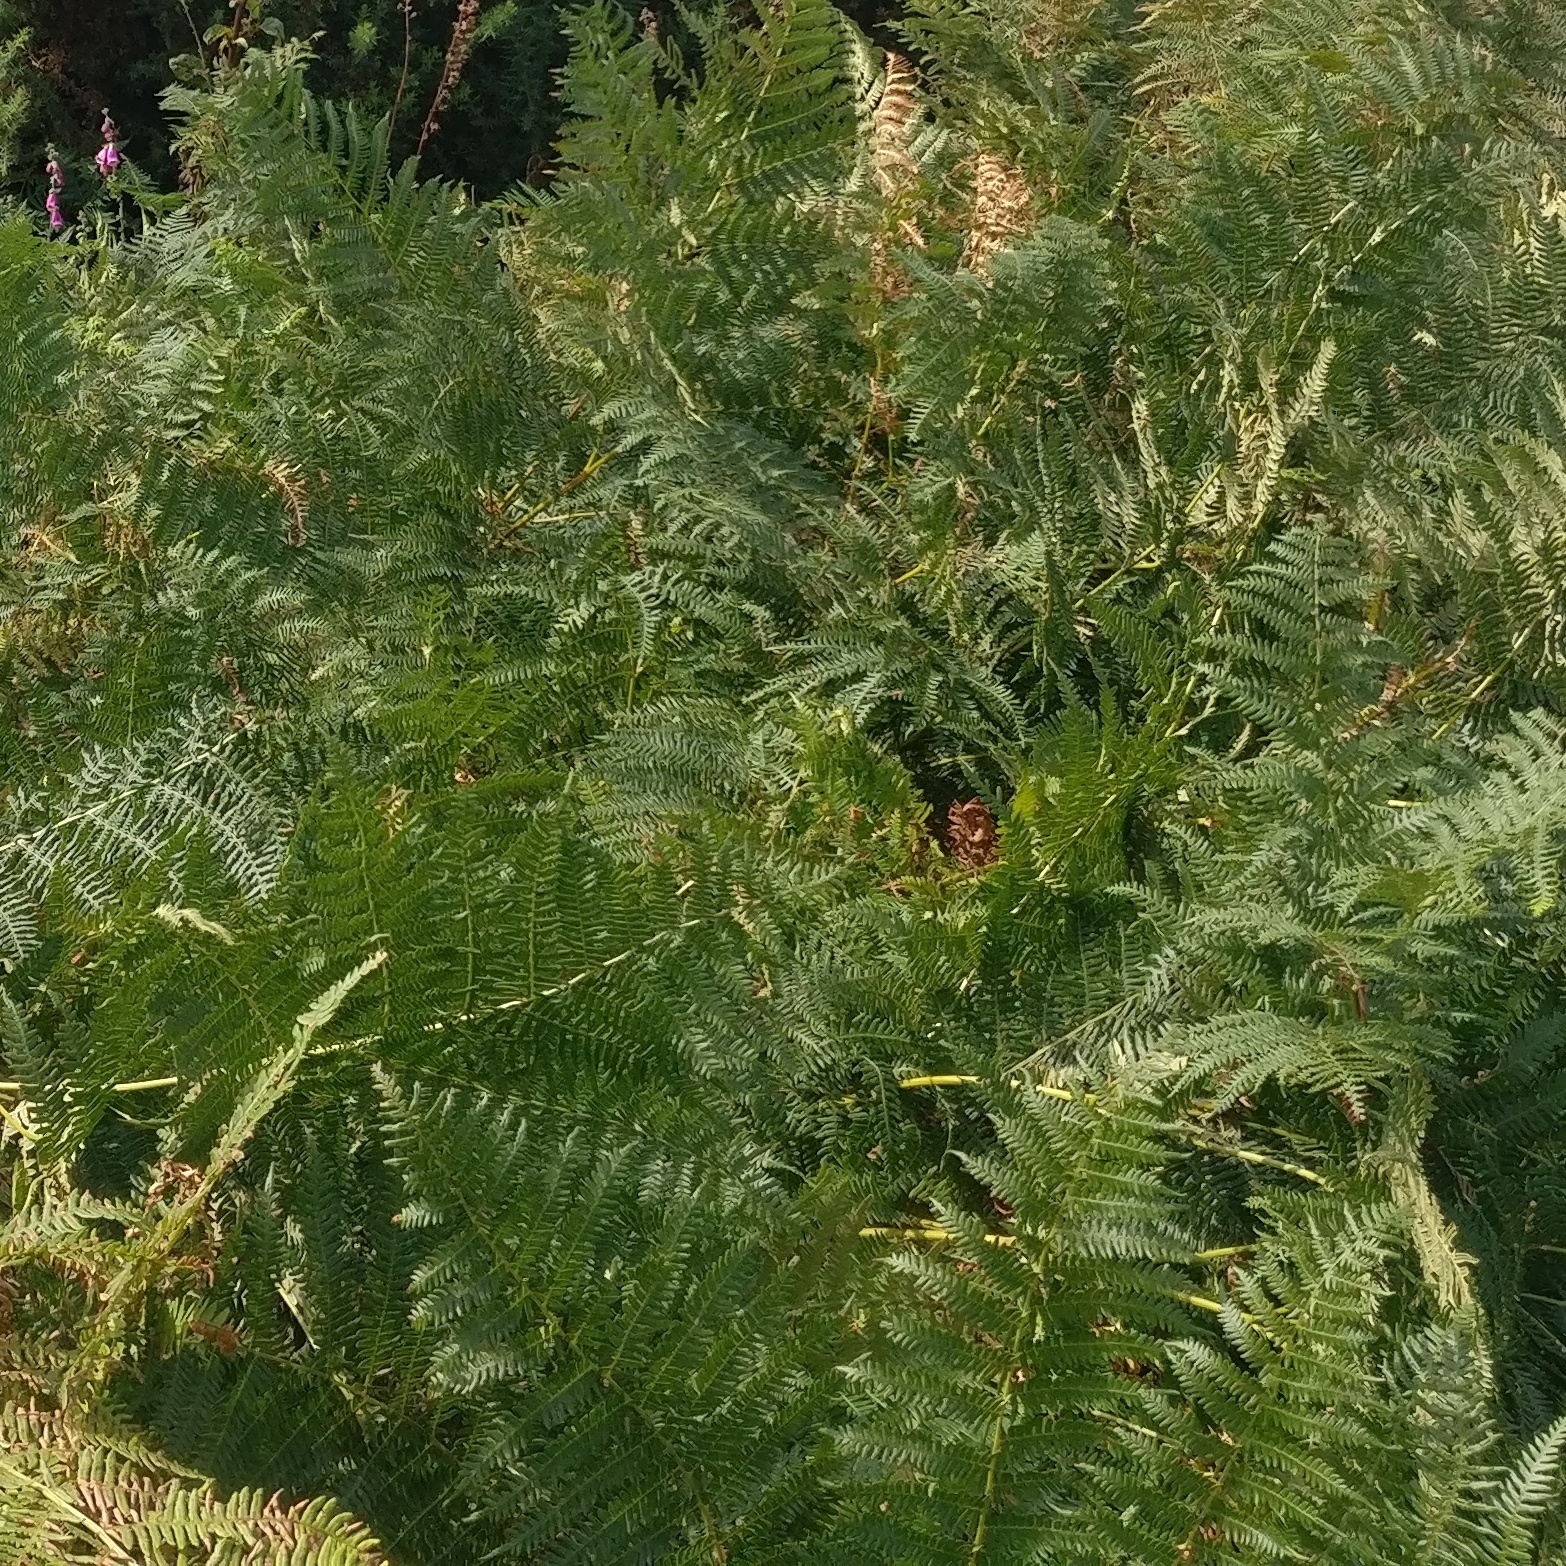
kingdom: Plantae
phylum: Tracheophyta
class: Polypodiopsida
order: Polypodiales
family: Dennstaedtiaceae
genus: Pteridium
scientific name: Pteridium aquilinum
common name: Bracken
